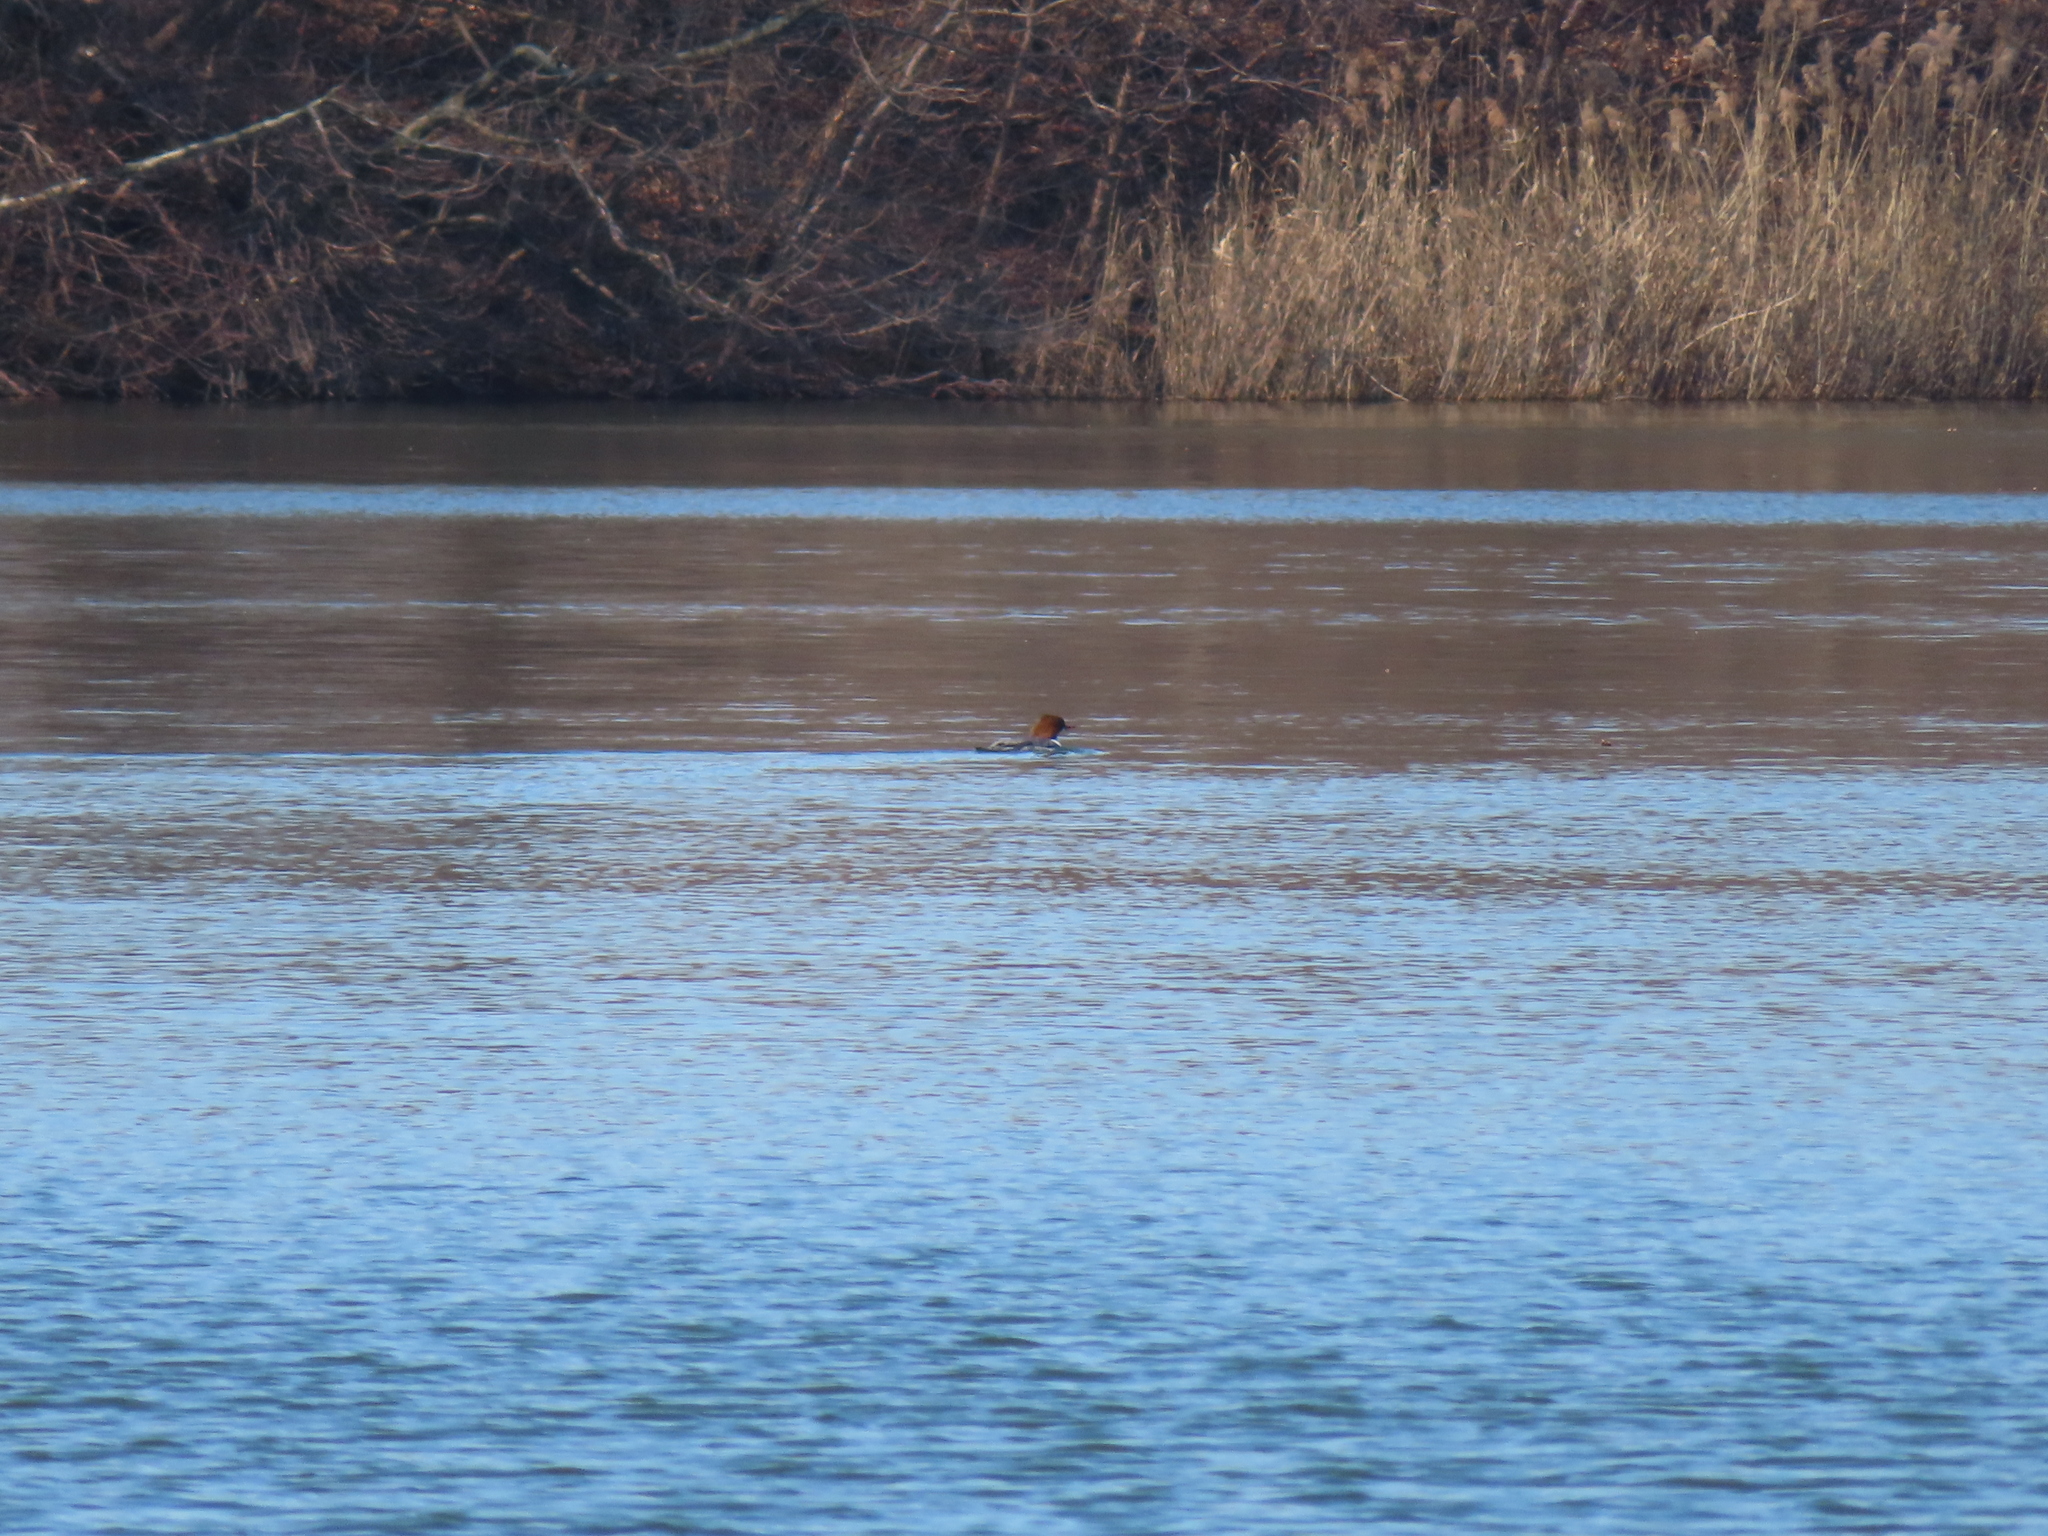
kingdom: Animalia
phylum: Chordata
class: Aves
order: Anseriformes
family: Anatidae
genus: Mergus
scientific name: Mergus merganser
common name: Common merganser
